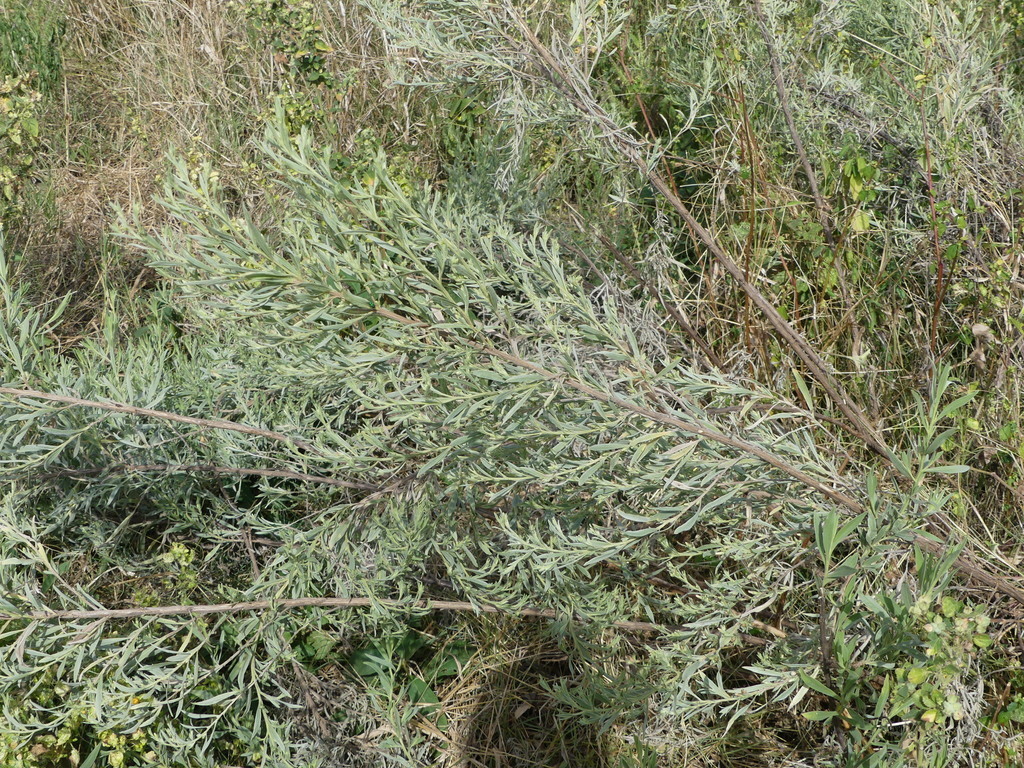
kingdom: Plantae
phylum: Tracheophyta
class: Magnoliopsida
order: Asterales
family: Asteraceae
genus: Pechuel-loeschea
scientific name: Pechuel-loeschea leubnitziae
